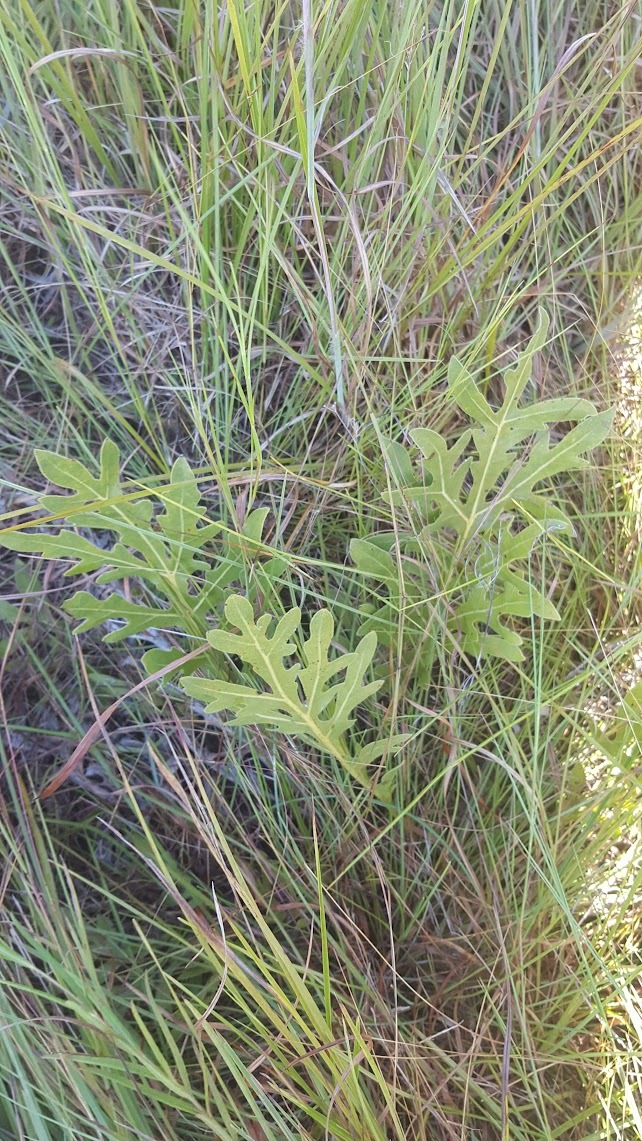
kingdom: Plantae
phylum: Tracheophyta
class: Magnoliopsida
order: Asterales
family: Asteraceae
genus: Silphium
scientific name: Silphium laciniatum
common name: Polarplant
